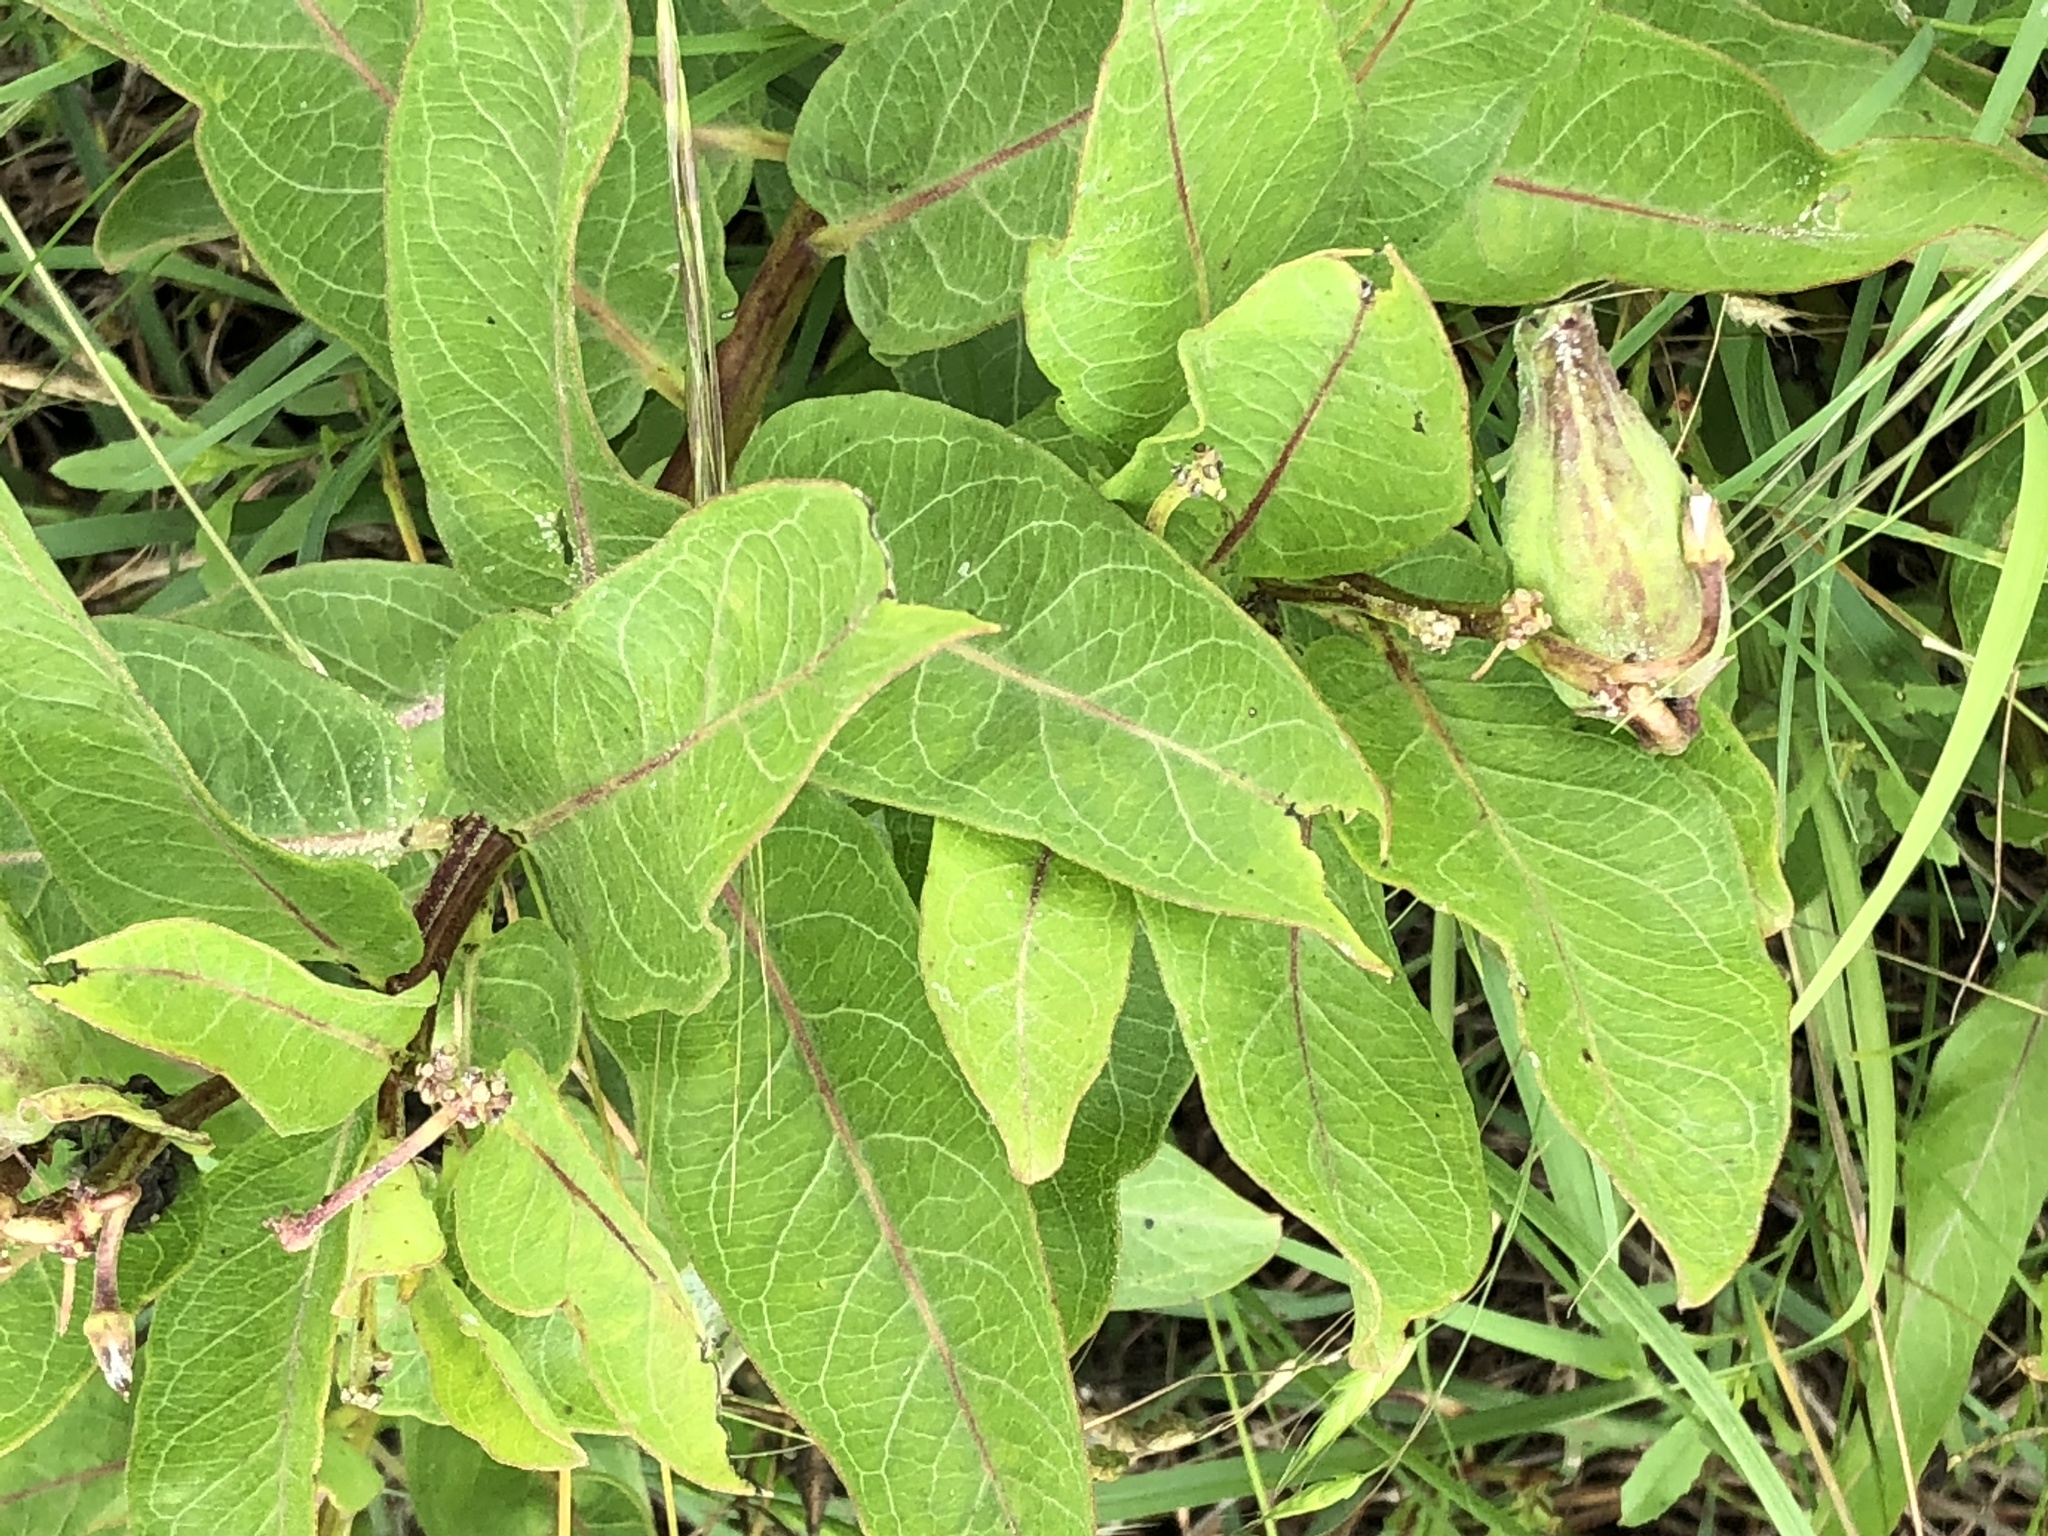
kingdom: Plantae
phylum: Tracheophyta
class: Magnoliopsida
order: Gentianales
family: Apocynaceae
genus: Asclepias
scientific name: Asclepias viridis
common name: Antelope-horns
